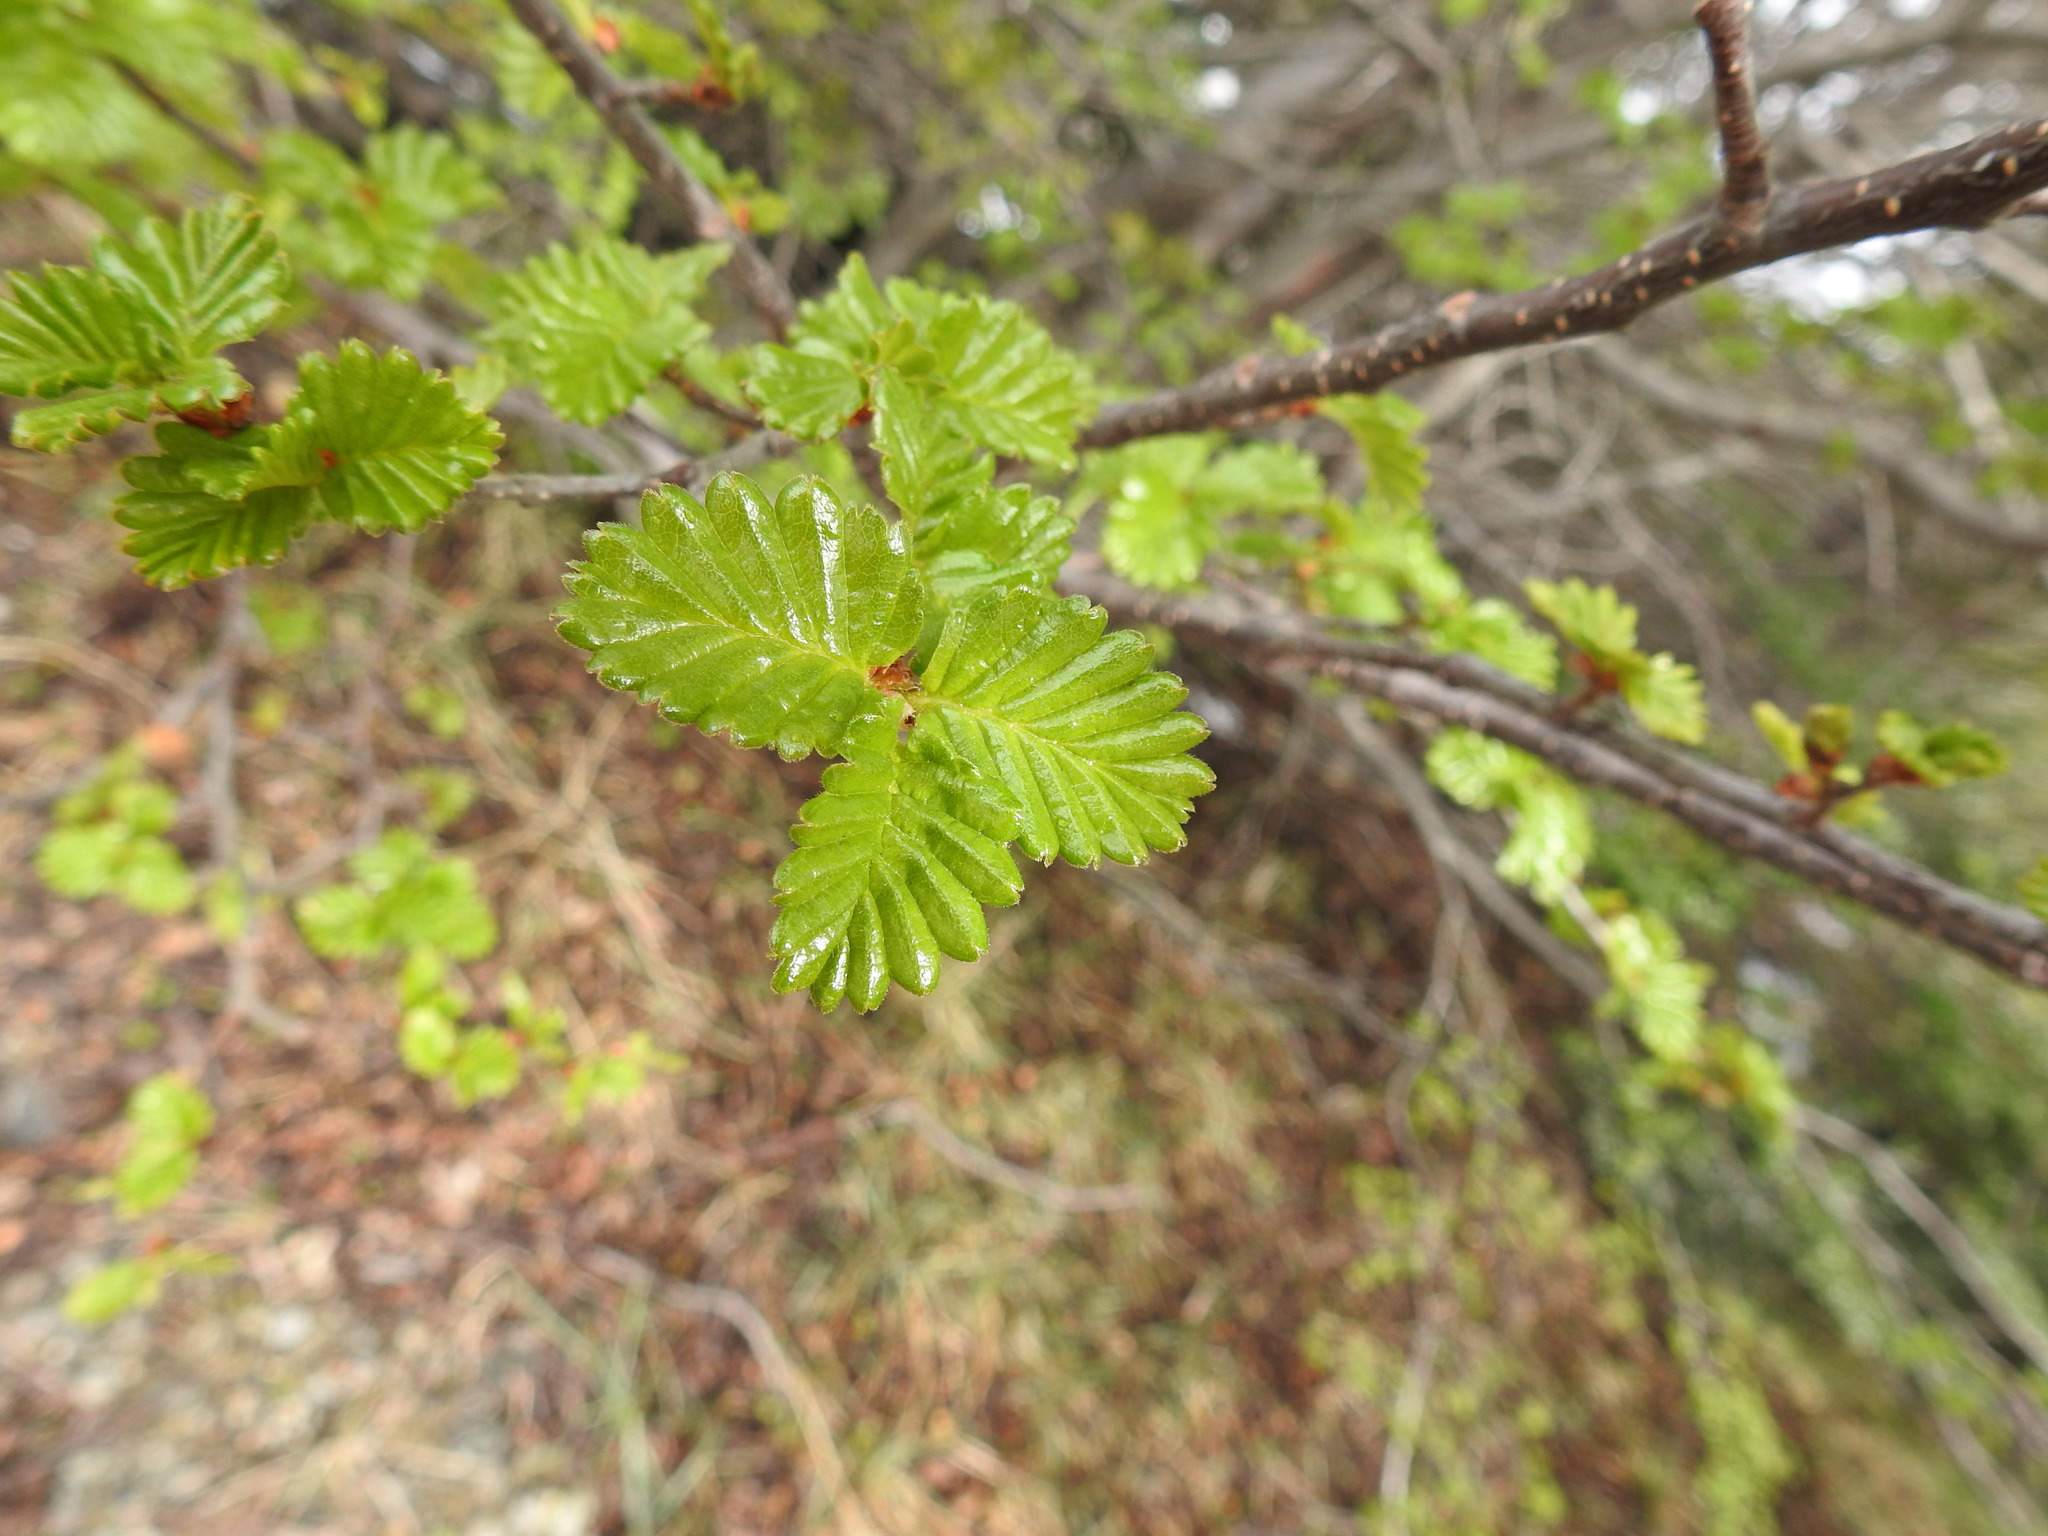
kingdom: Plantae
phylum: Tracheophyta
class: Magnoliopsida
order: Fagales
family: Nothofagaceae
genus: Nothofagus
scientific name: Nothofagus pumilio
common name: Lenga beech
